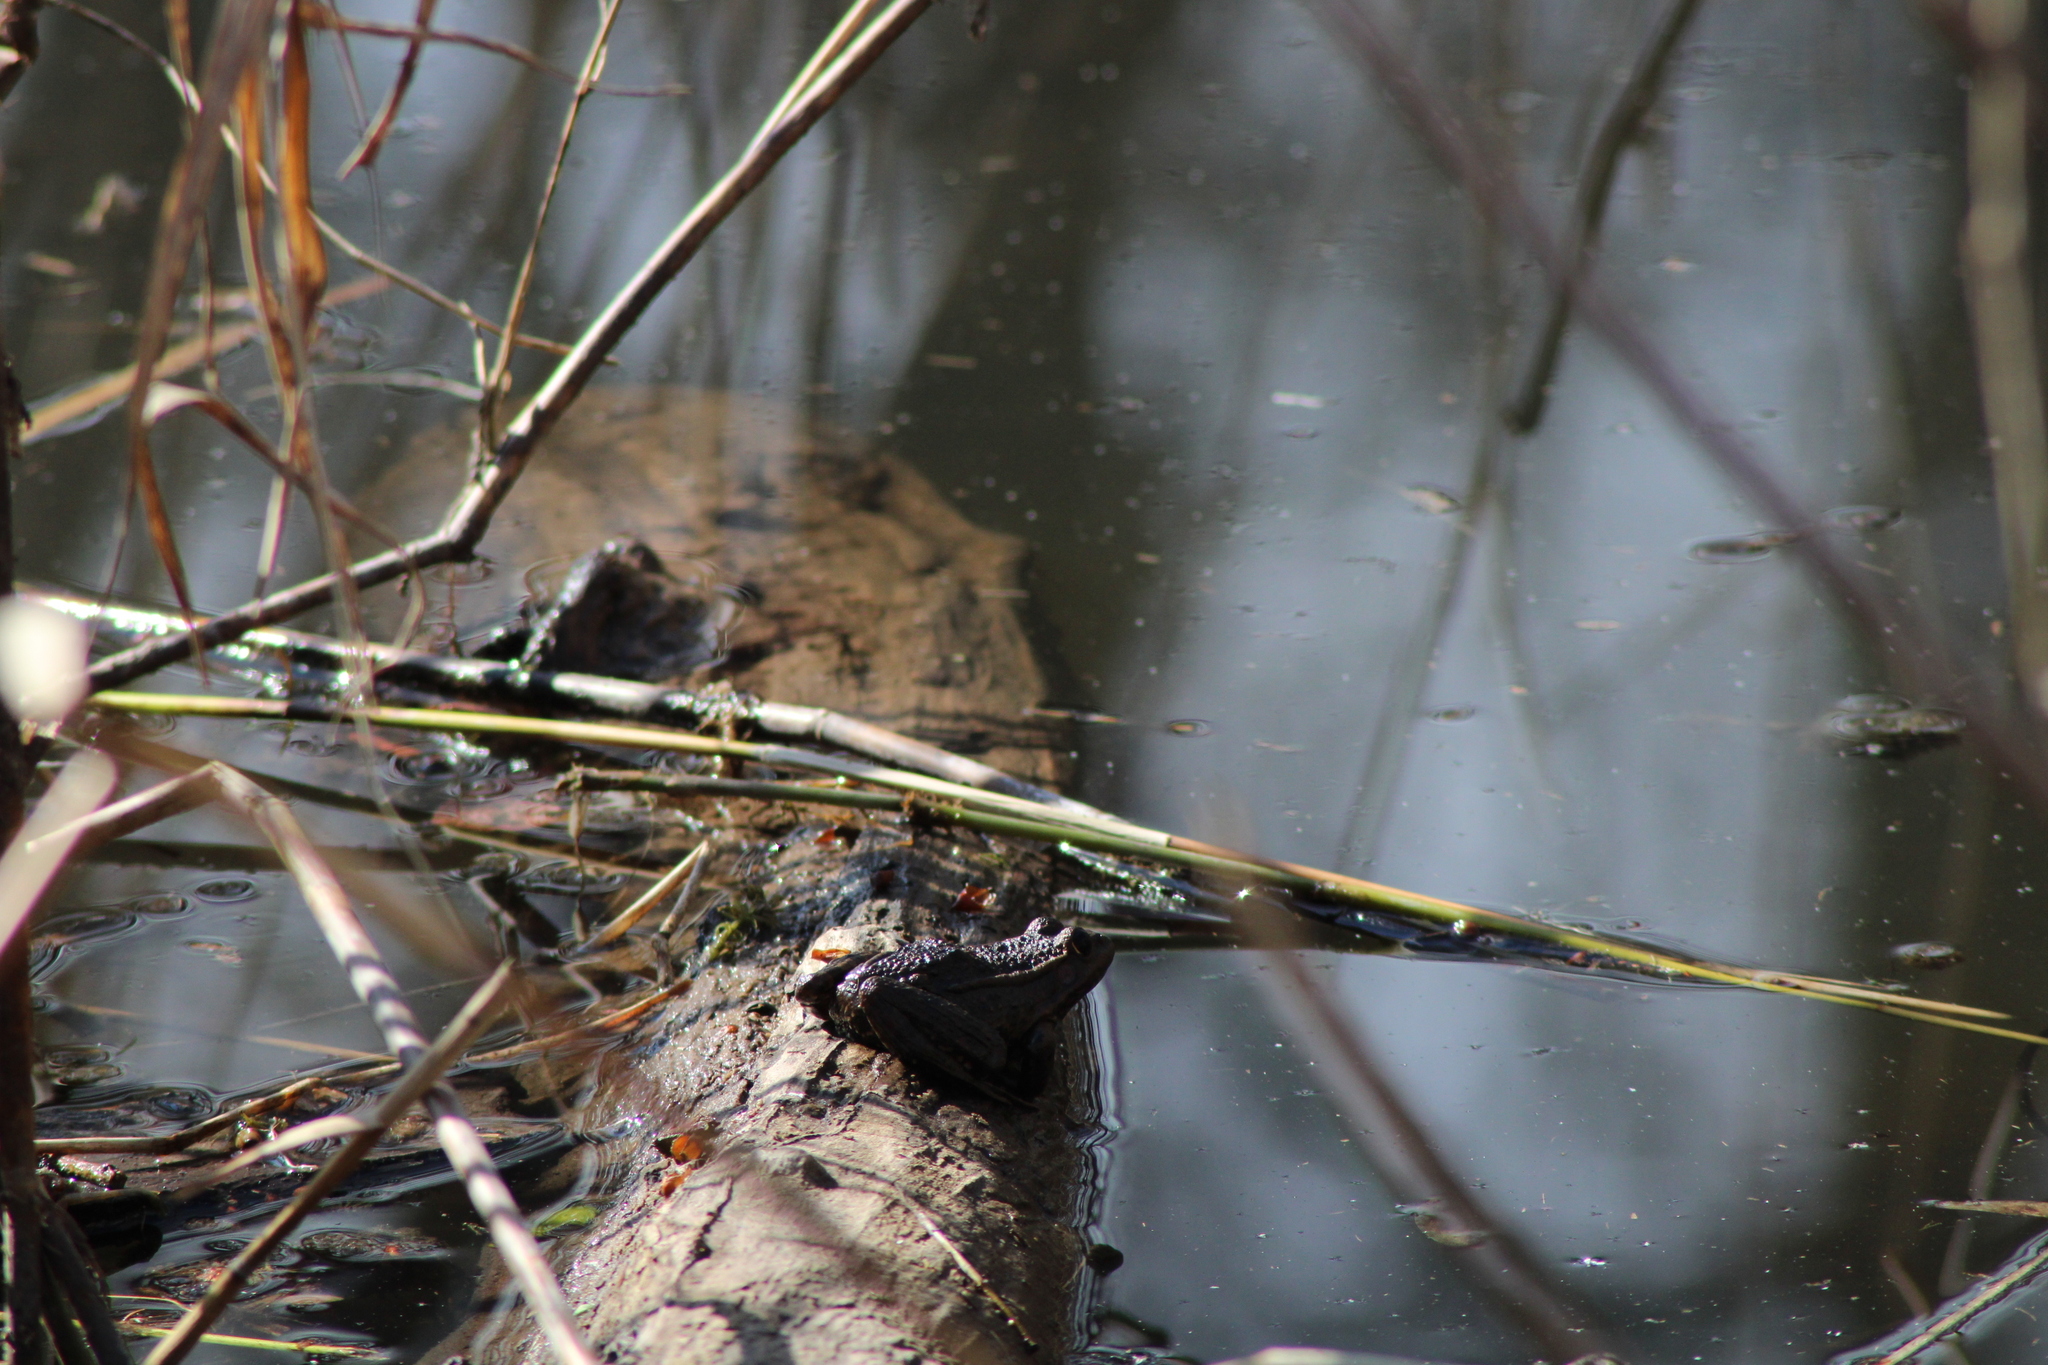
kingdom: Animalia
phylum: Chordata
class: Amphibia
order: Anura
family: Ranidae
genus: Pelophylax
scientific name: Pelophylax
